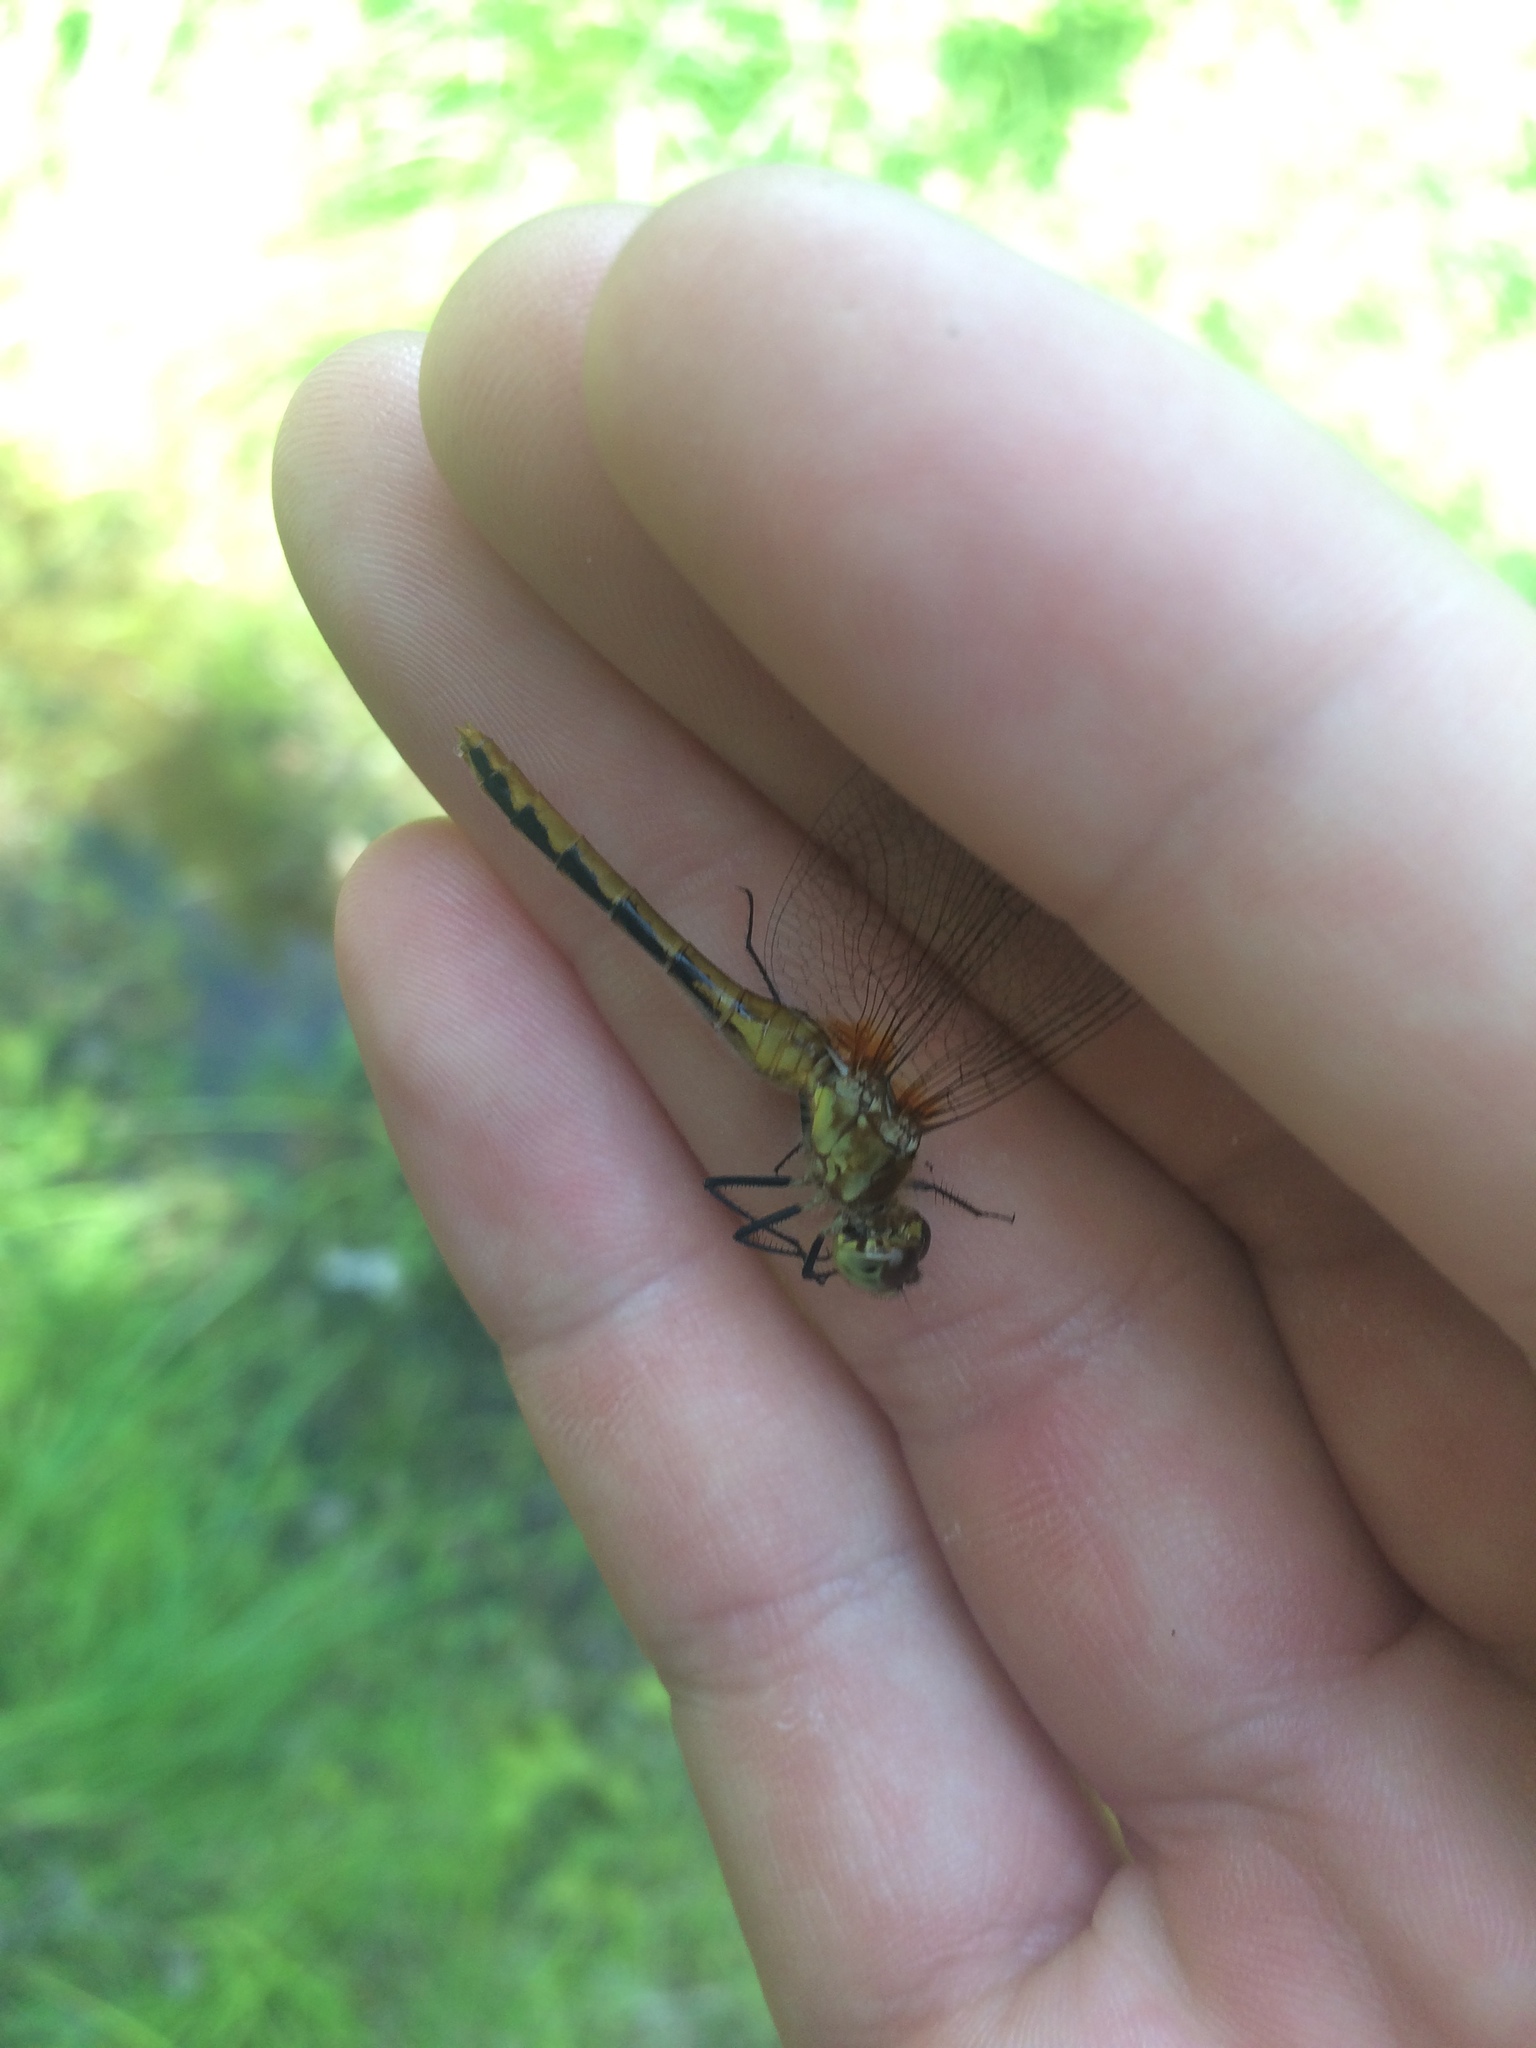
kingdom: Animalia
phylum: Arthropoda
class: Insecta
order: Odonata
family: Libellulidae
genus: Sympetrum
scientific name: Sympetrum obtrusum
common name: White-faced meadowhawk
